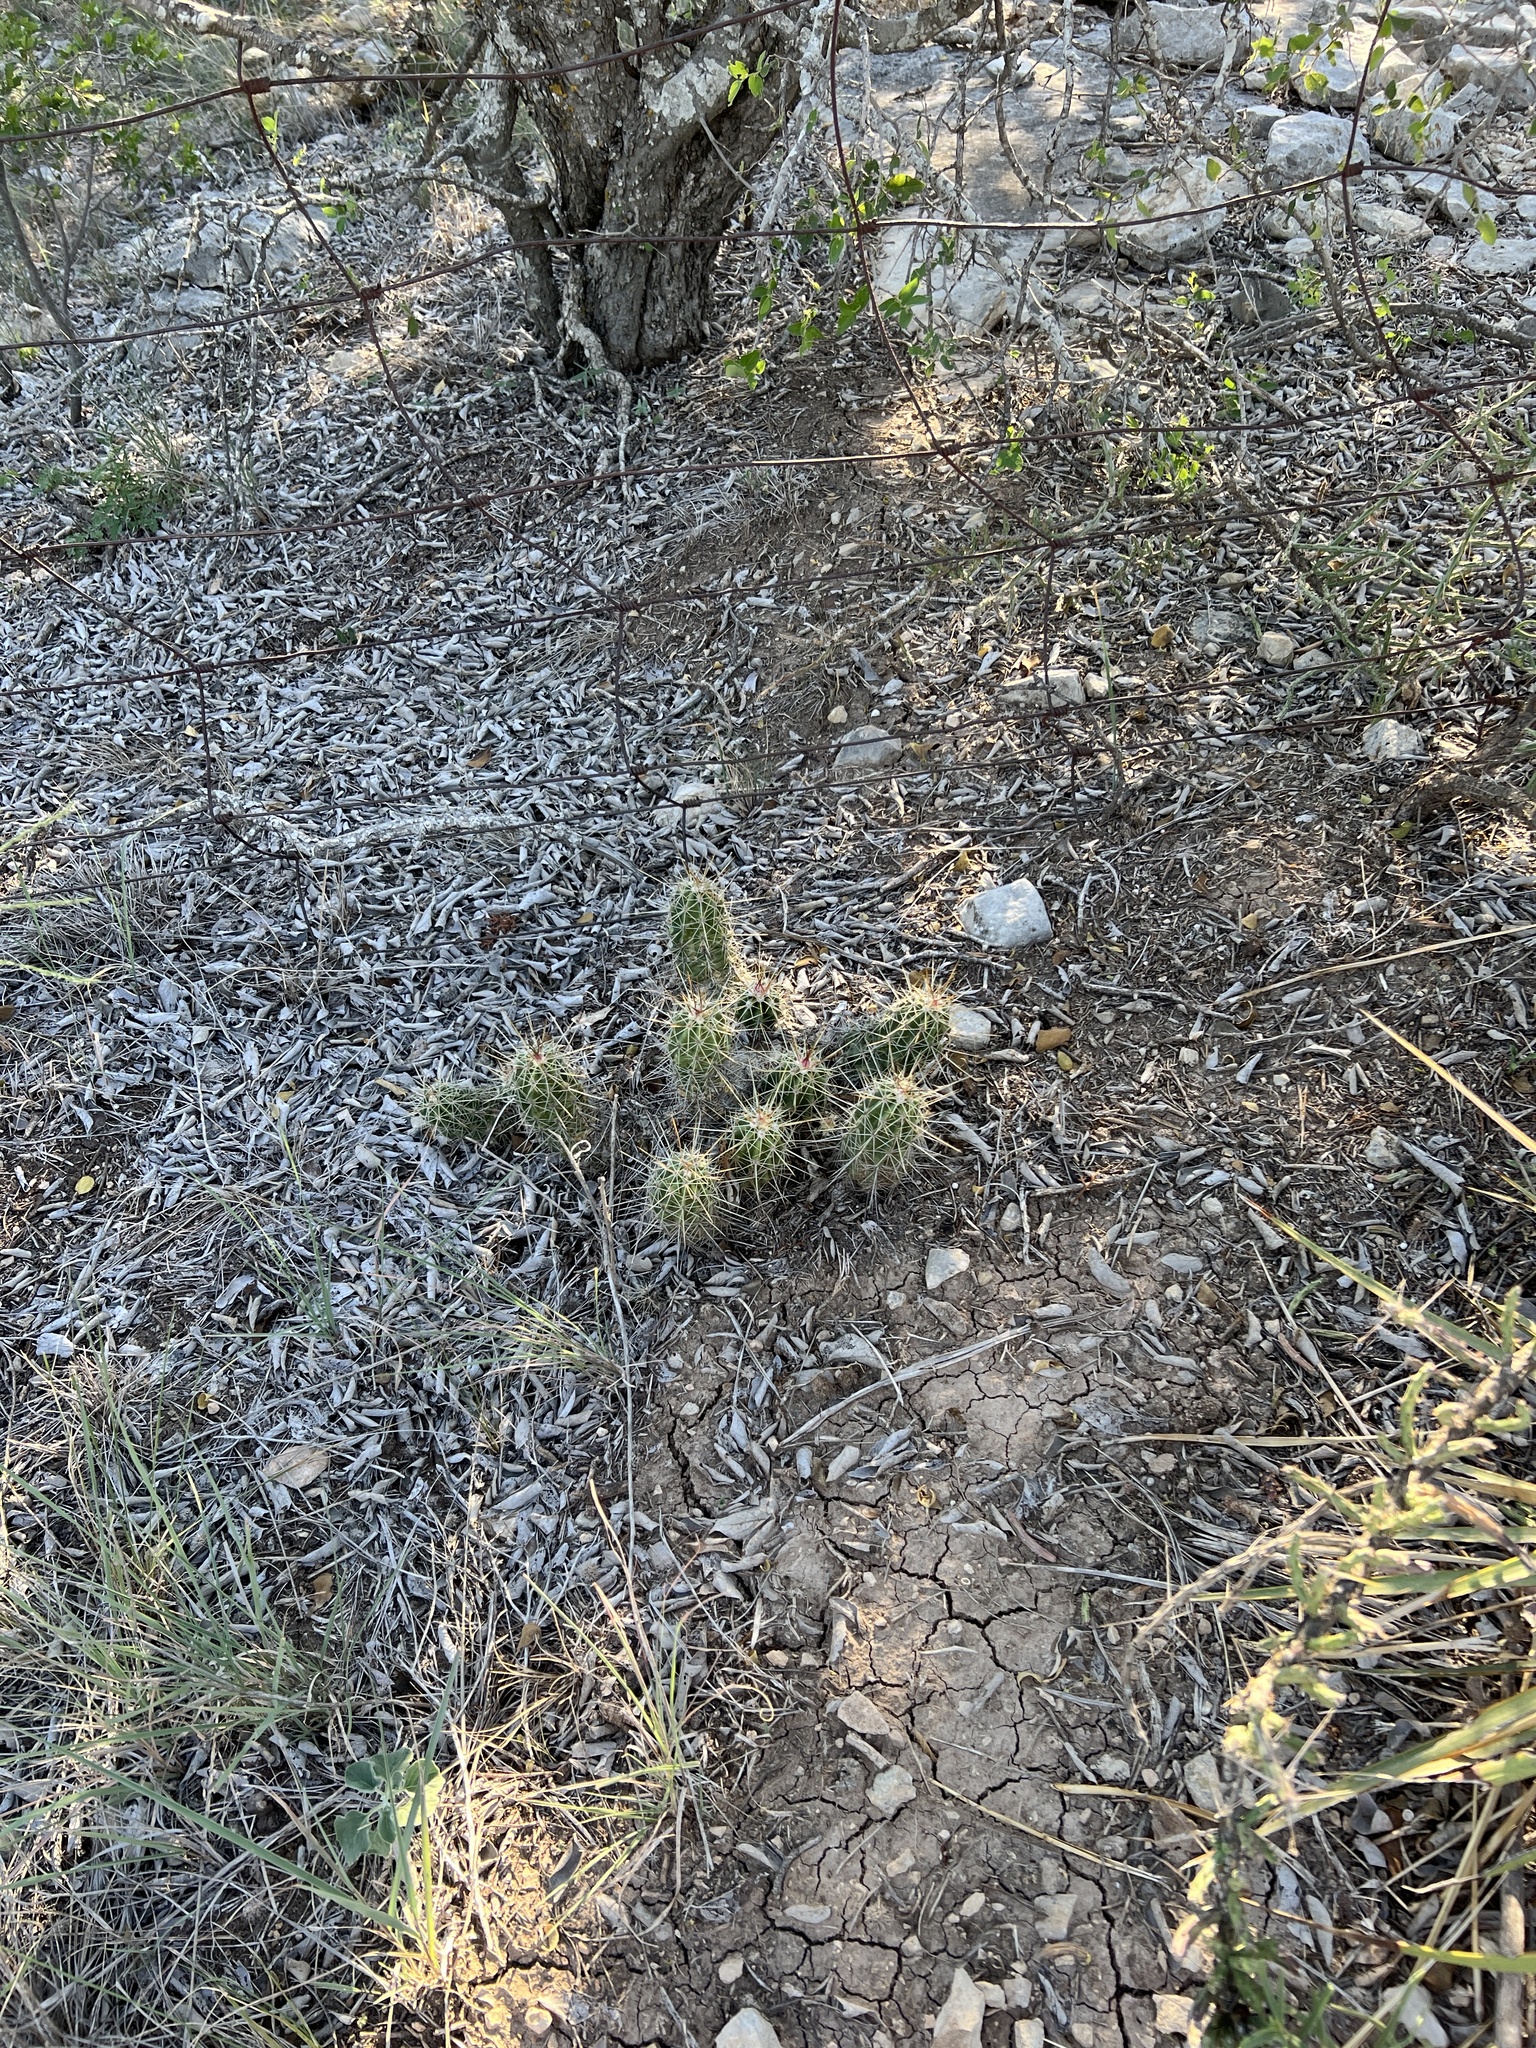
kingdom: Plantae
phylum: Tracheophyta
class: Magnoliopsida
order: Caryophyllales
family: Cactaceae
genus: Echinocereus
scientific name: Echinocereus enneacanthus
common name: Pitaya
